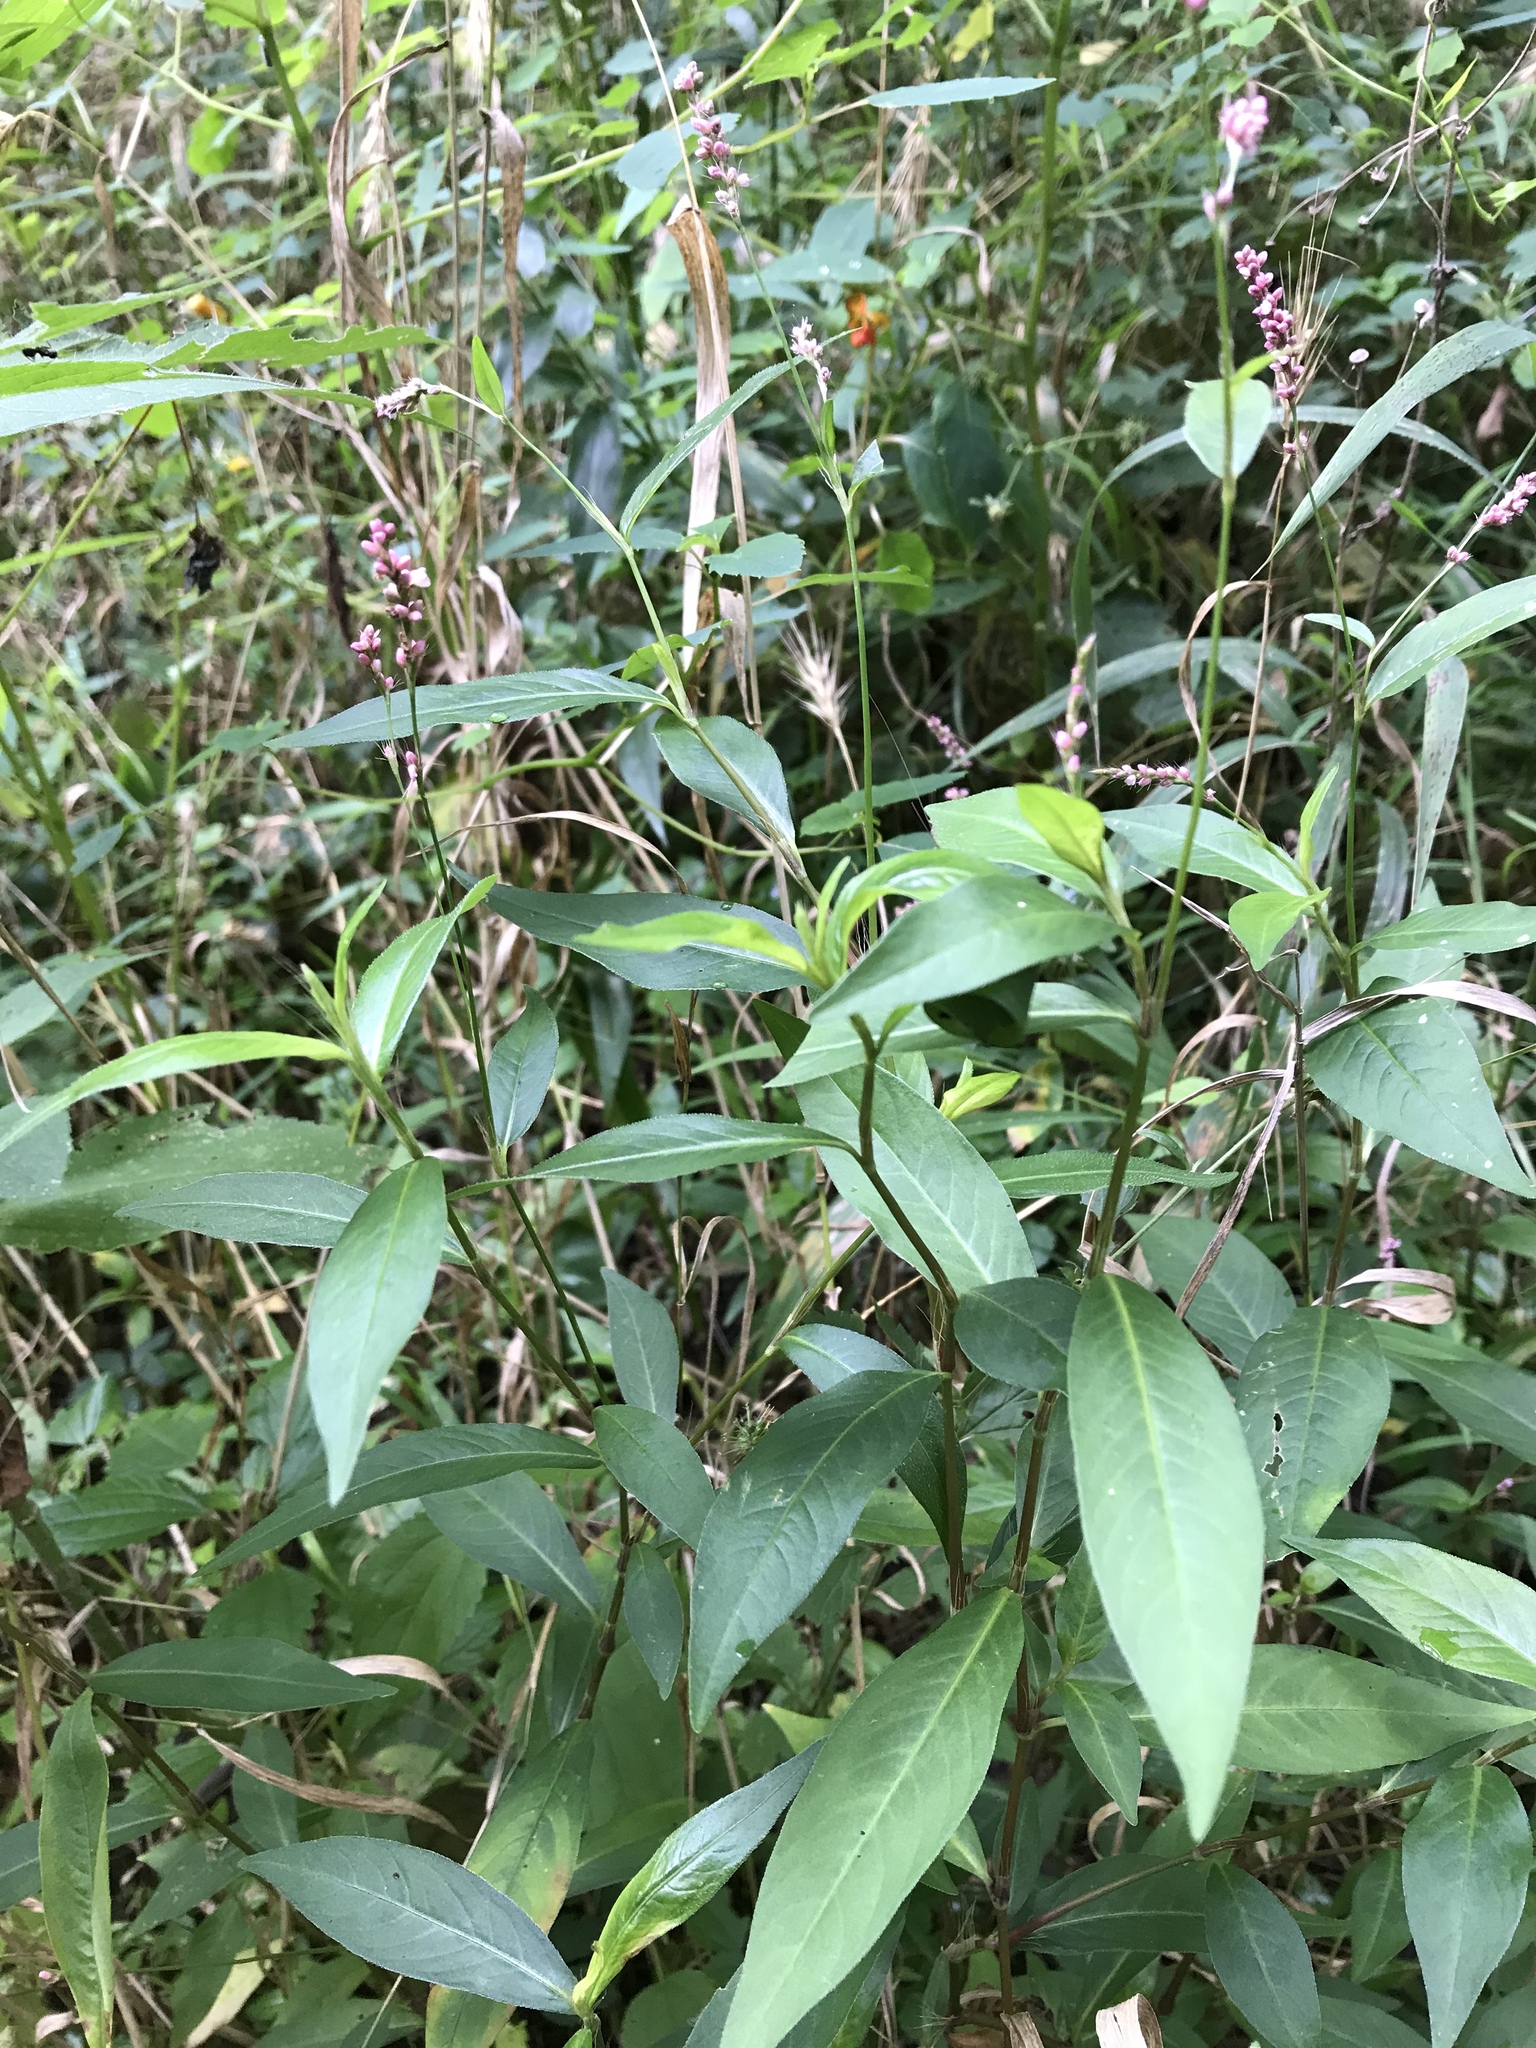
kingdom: Plantae
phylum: Tracheophyta
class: Magnoliopsida
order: Caryophyllales
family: Polygonaceae
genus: Persicaria
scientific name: Persicaria longiseta
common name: Bristly lady's-thumb
